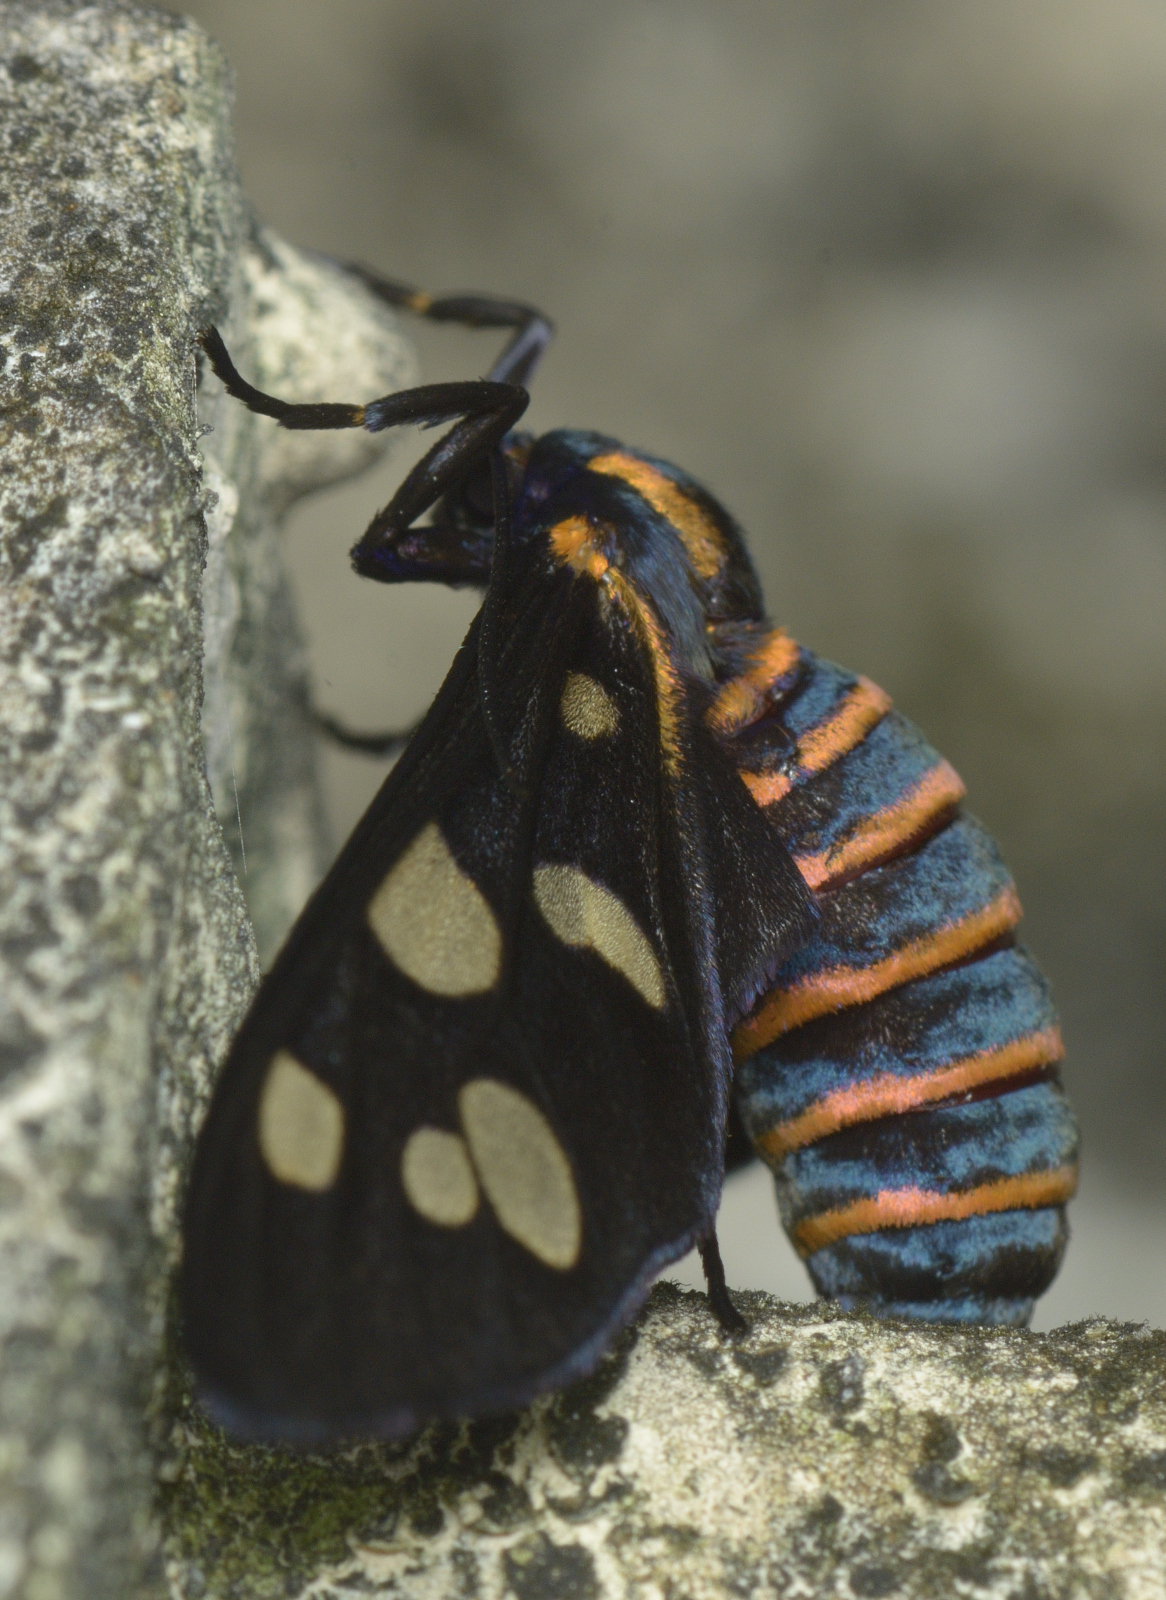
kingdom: Animalia
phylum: Arthropoda
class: Insecta
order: Lepidoptera
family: Erebidae
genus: Amata
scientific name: Amata passalis
